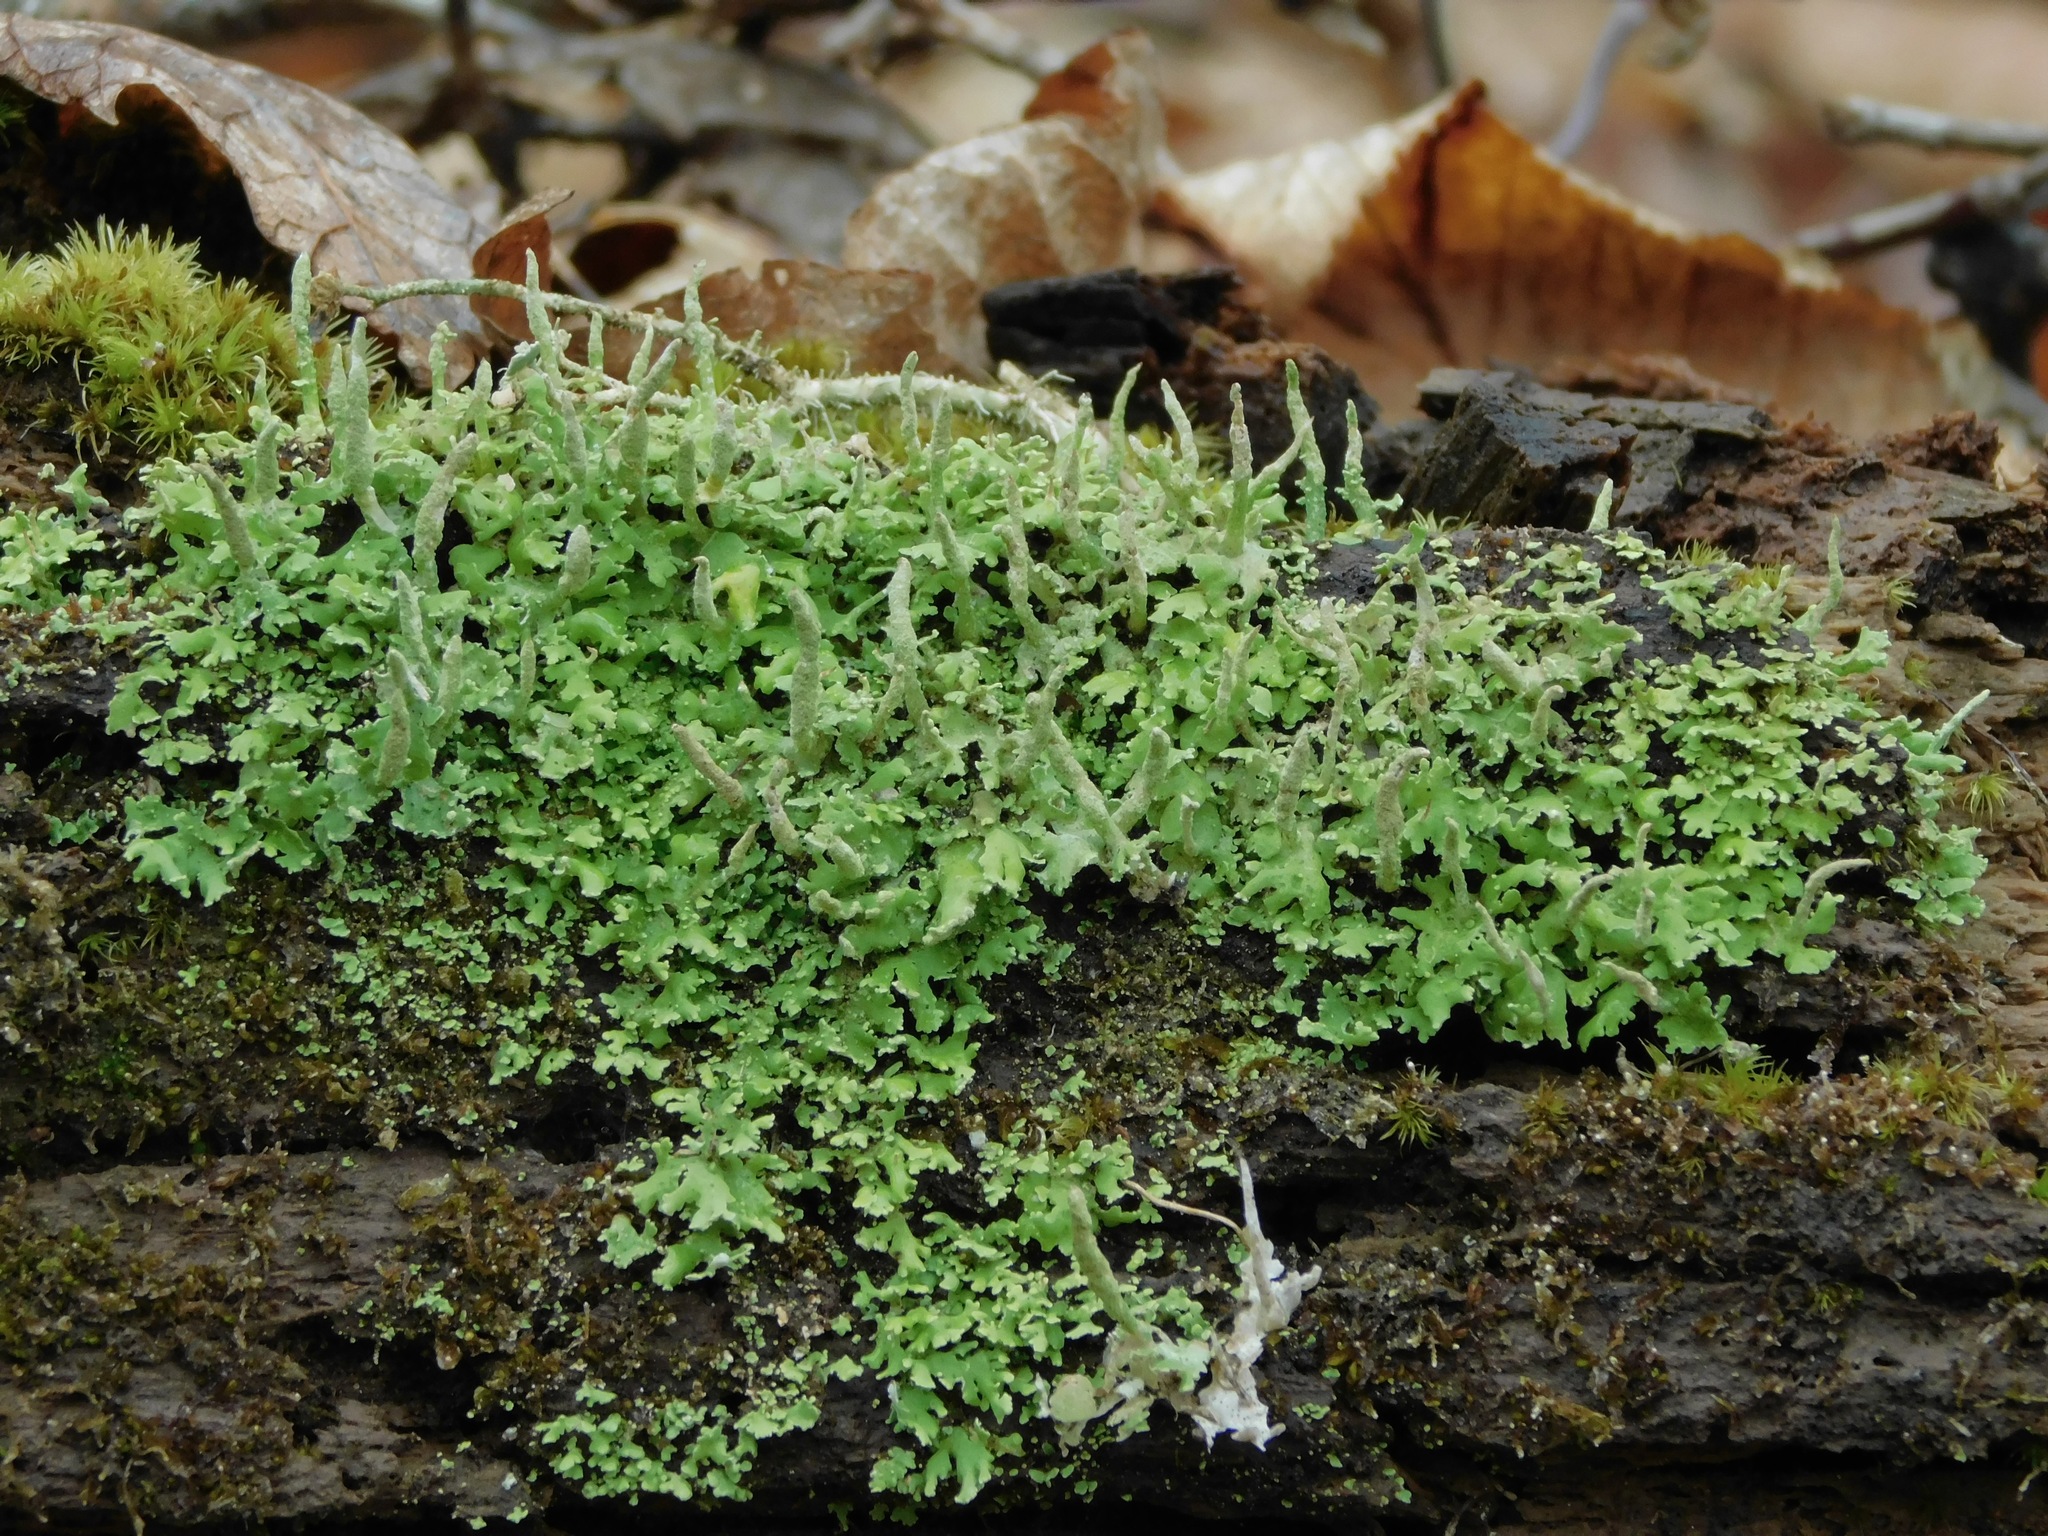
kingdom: Fungi
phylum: Ascomycota
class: Lecanoromycetes
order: Lecanorales
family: Cladoniaceae
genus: Cladonia
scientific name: Cladonia ochrochlora
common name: Smooth-footed powderhorn
